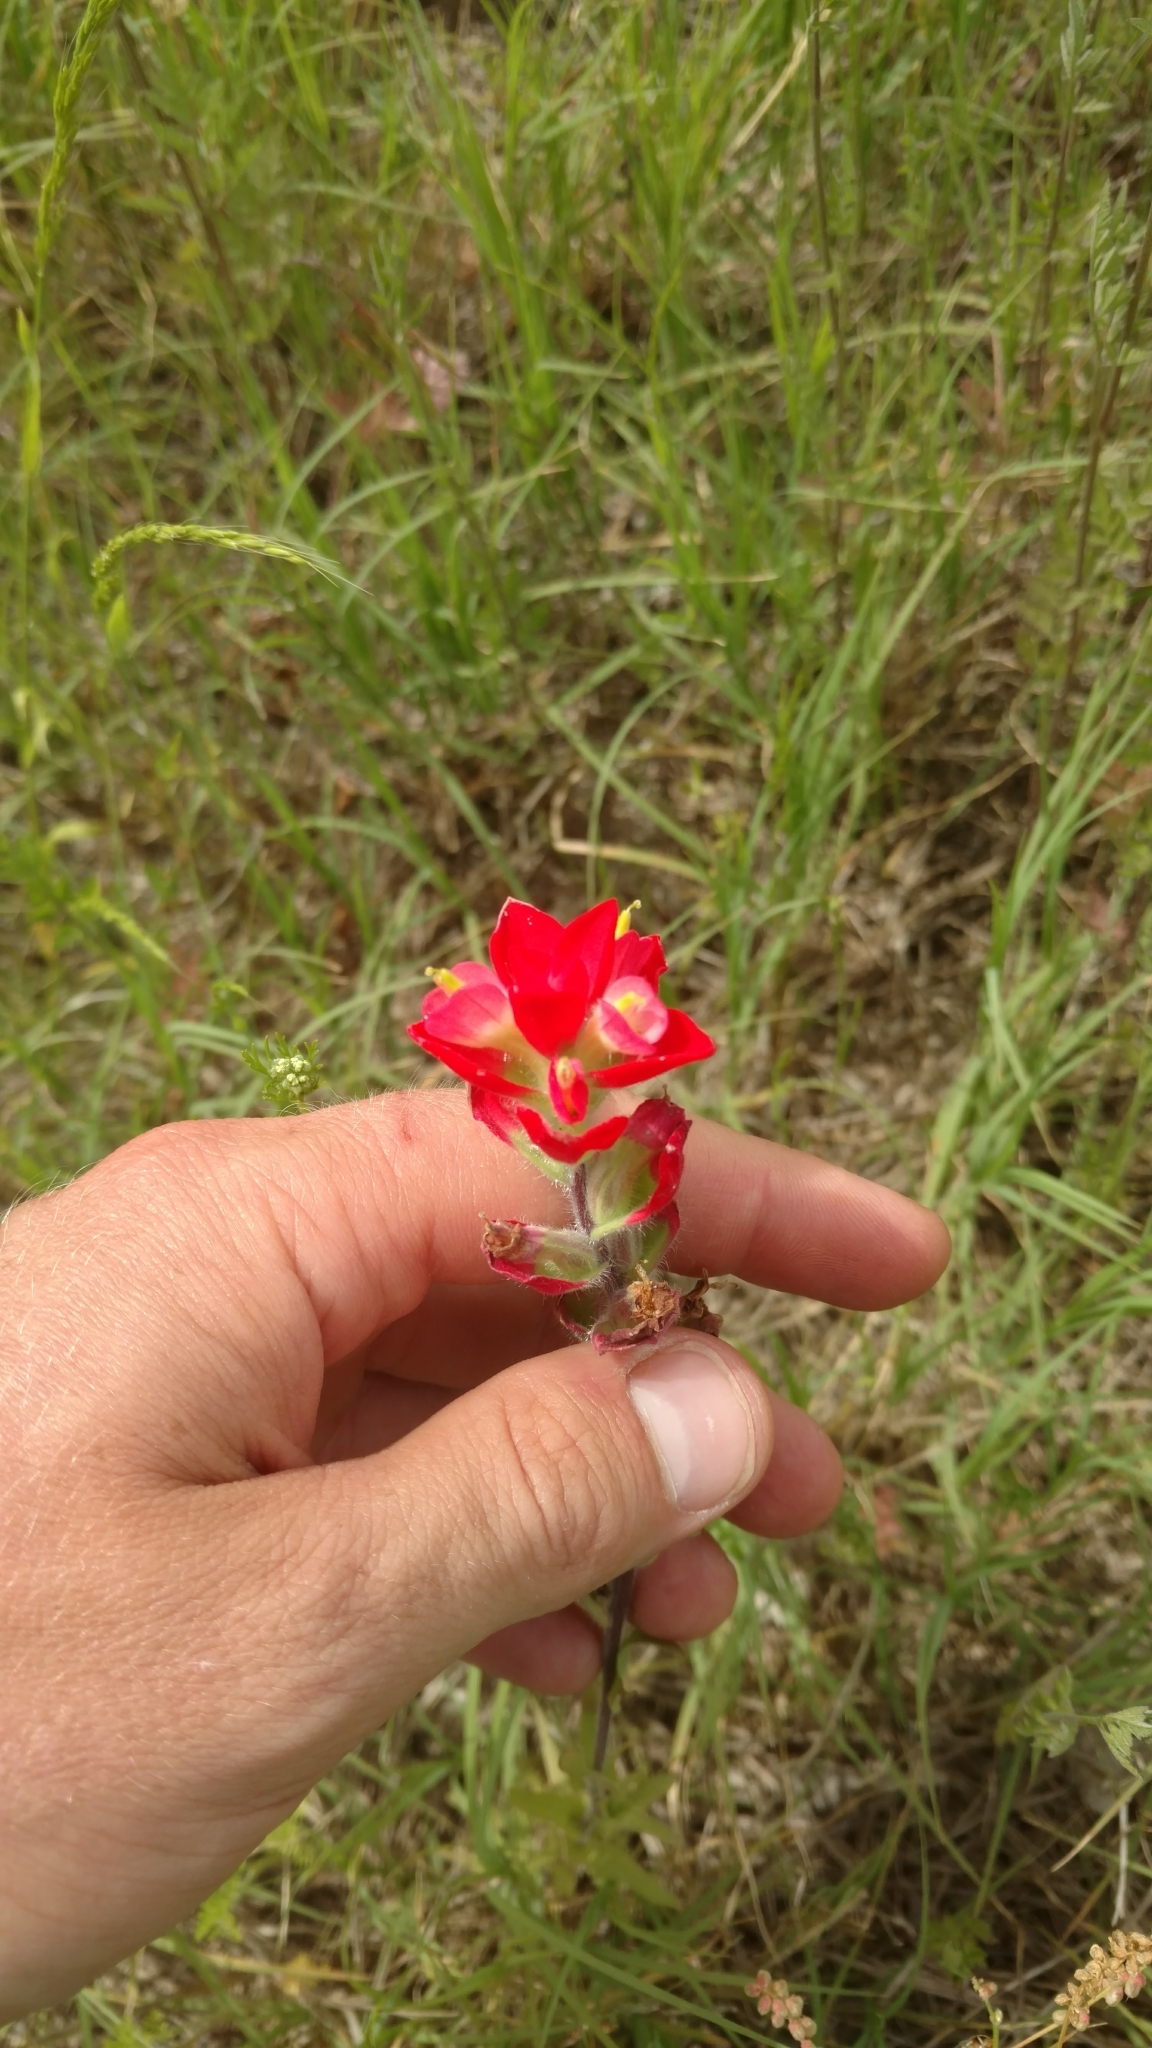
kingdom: Plantae
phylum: Tracheophyta
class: Magnoliopsida
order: Lamiales
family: Orobanchaceae
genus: Castilleja
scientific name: Castilleja indivisa
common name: Texas paintbrush
